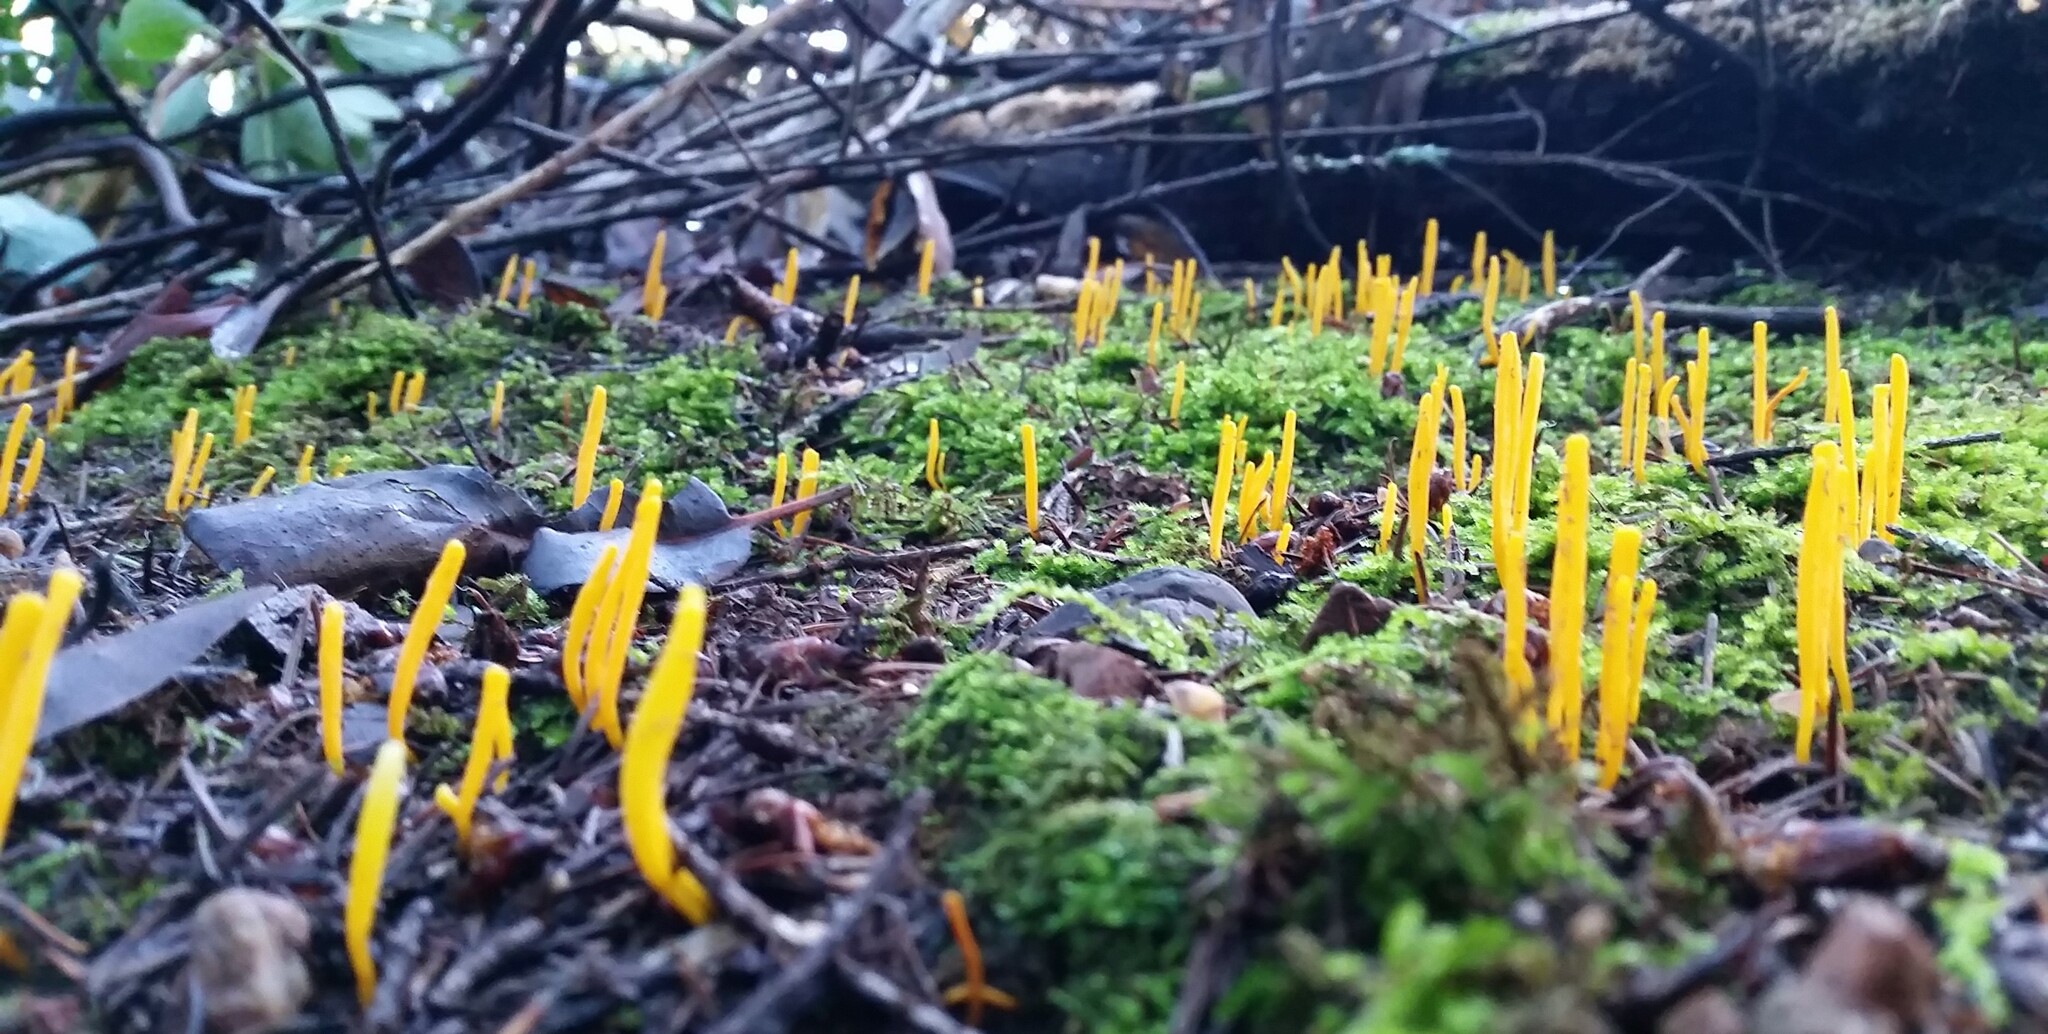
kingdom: Fungi
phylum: Basidiomycota
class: Agaricomycetes
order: Agaricales
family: Clavariaceae
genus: Clavulinopsis
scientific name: Clavulinopsis laeticolor
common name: Handsome club
